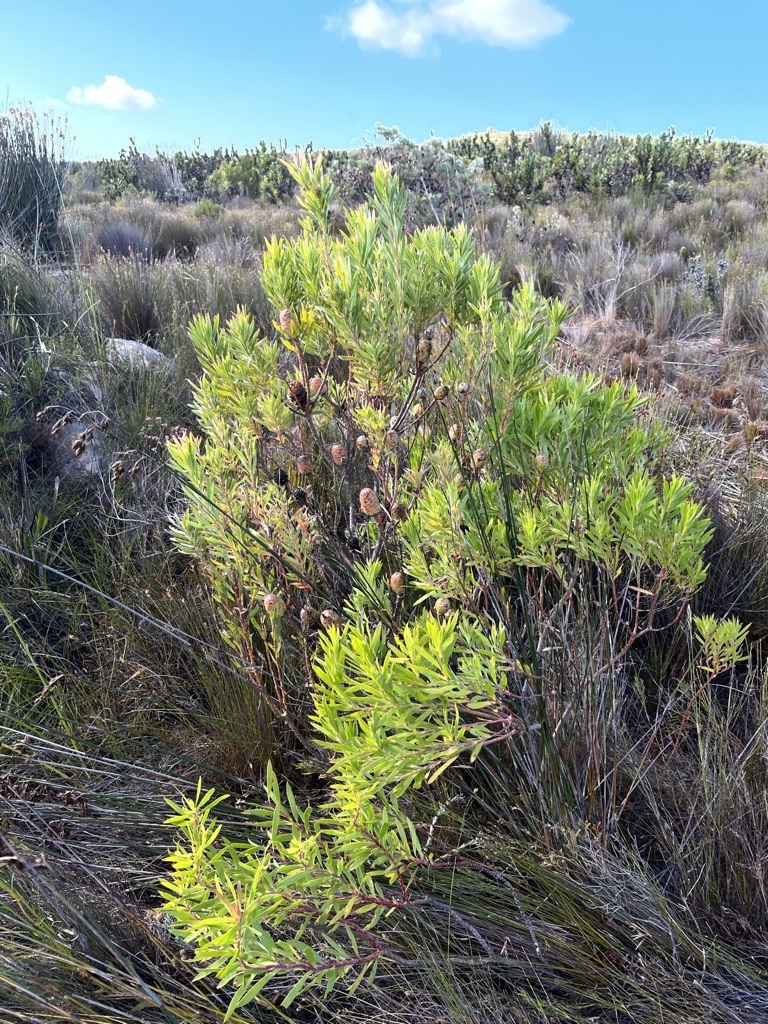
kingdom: Plantae
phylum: Tracheophyta
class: Magnoliopsida
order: Proteales
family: Proteaceae
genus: Leucadendron
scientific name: Leucadendron xanthoconus
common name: Sickle-leaf conebush
